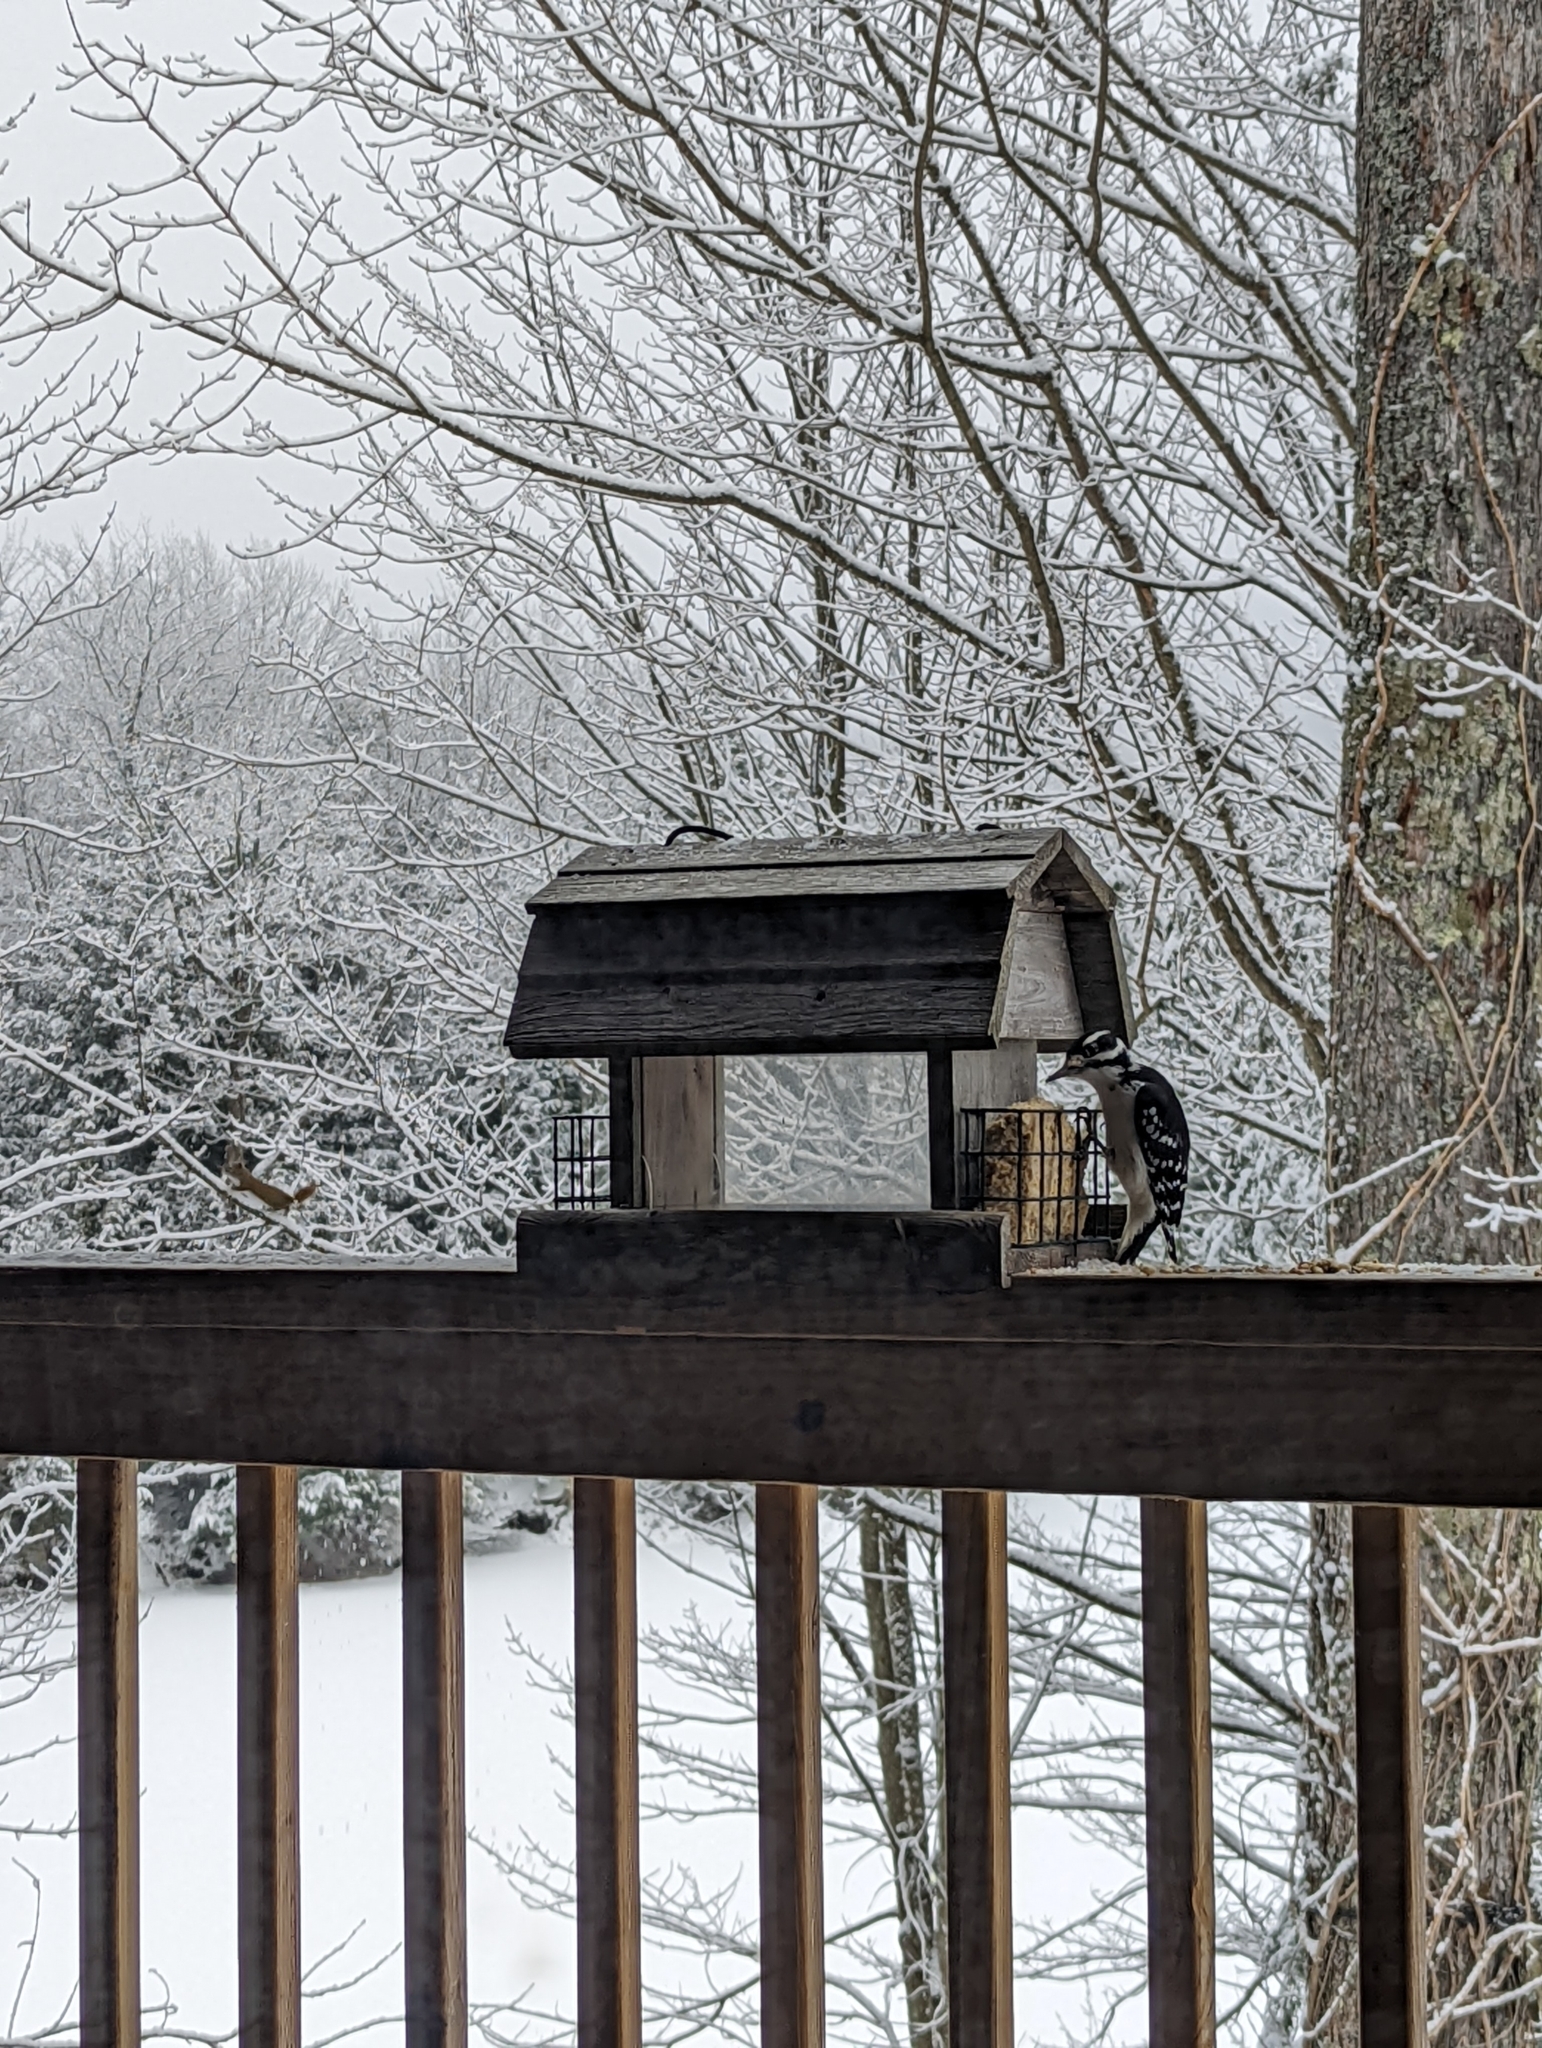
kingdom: Animalia
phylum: Chordata
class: Aves
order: Piciformes
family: Picidae
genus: Leuconotopicus
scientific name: Leuconotopicus villosus
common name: Hairy woodpecker
